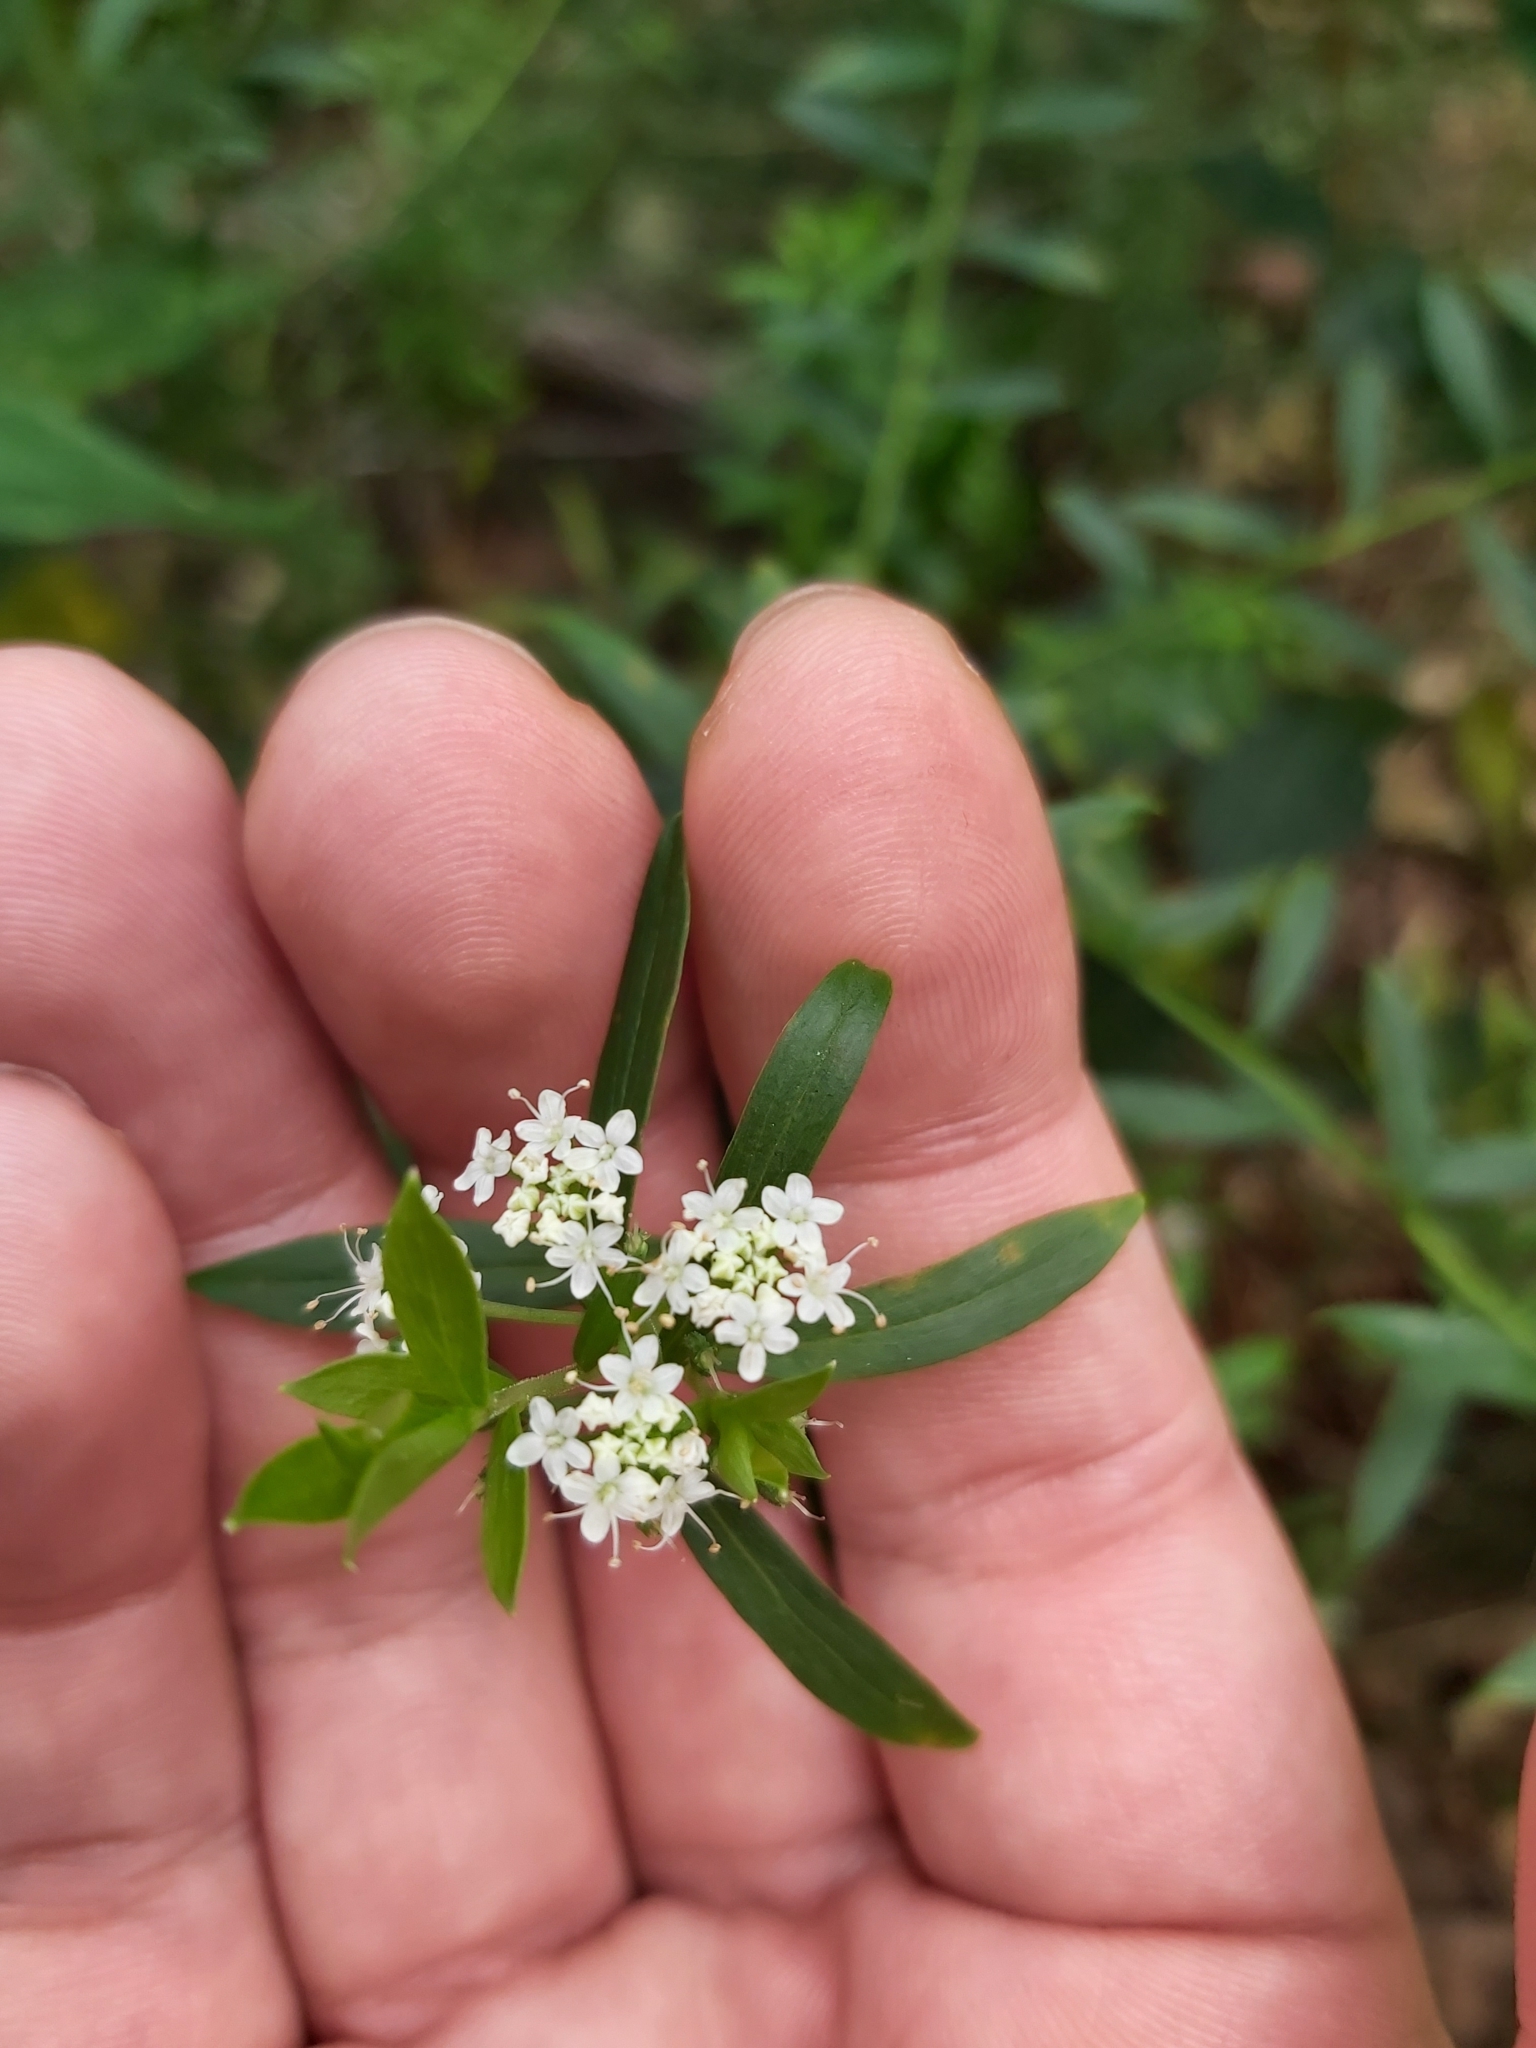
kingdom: Plantae
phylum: Tracheophyta
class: Magnoliopsida
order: Apiales
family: Apiaceae
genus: Platysace
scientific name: Platysace lanceolata
